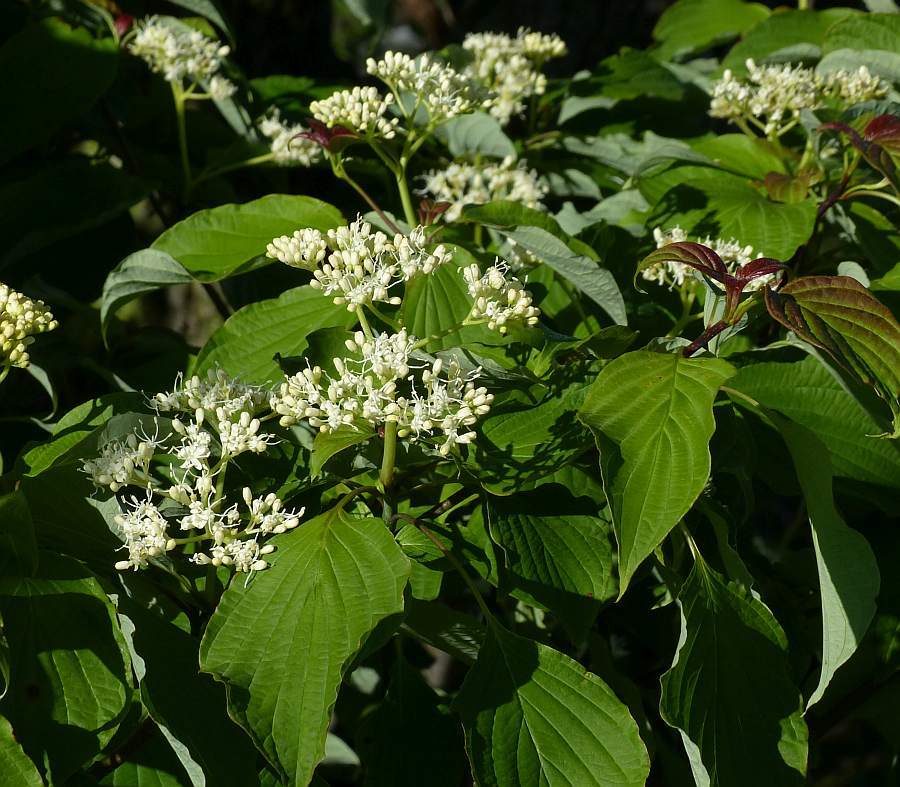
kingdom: Plantae
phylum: Tracheophyta
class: Magnoliopsida
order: Cornales
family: Cornaceae
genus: Cornus
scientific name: Cornus alternifolia
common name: Pagoda dogwood
